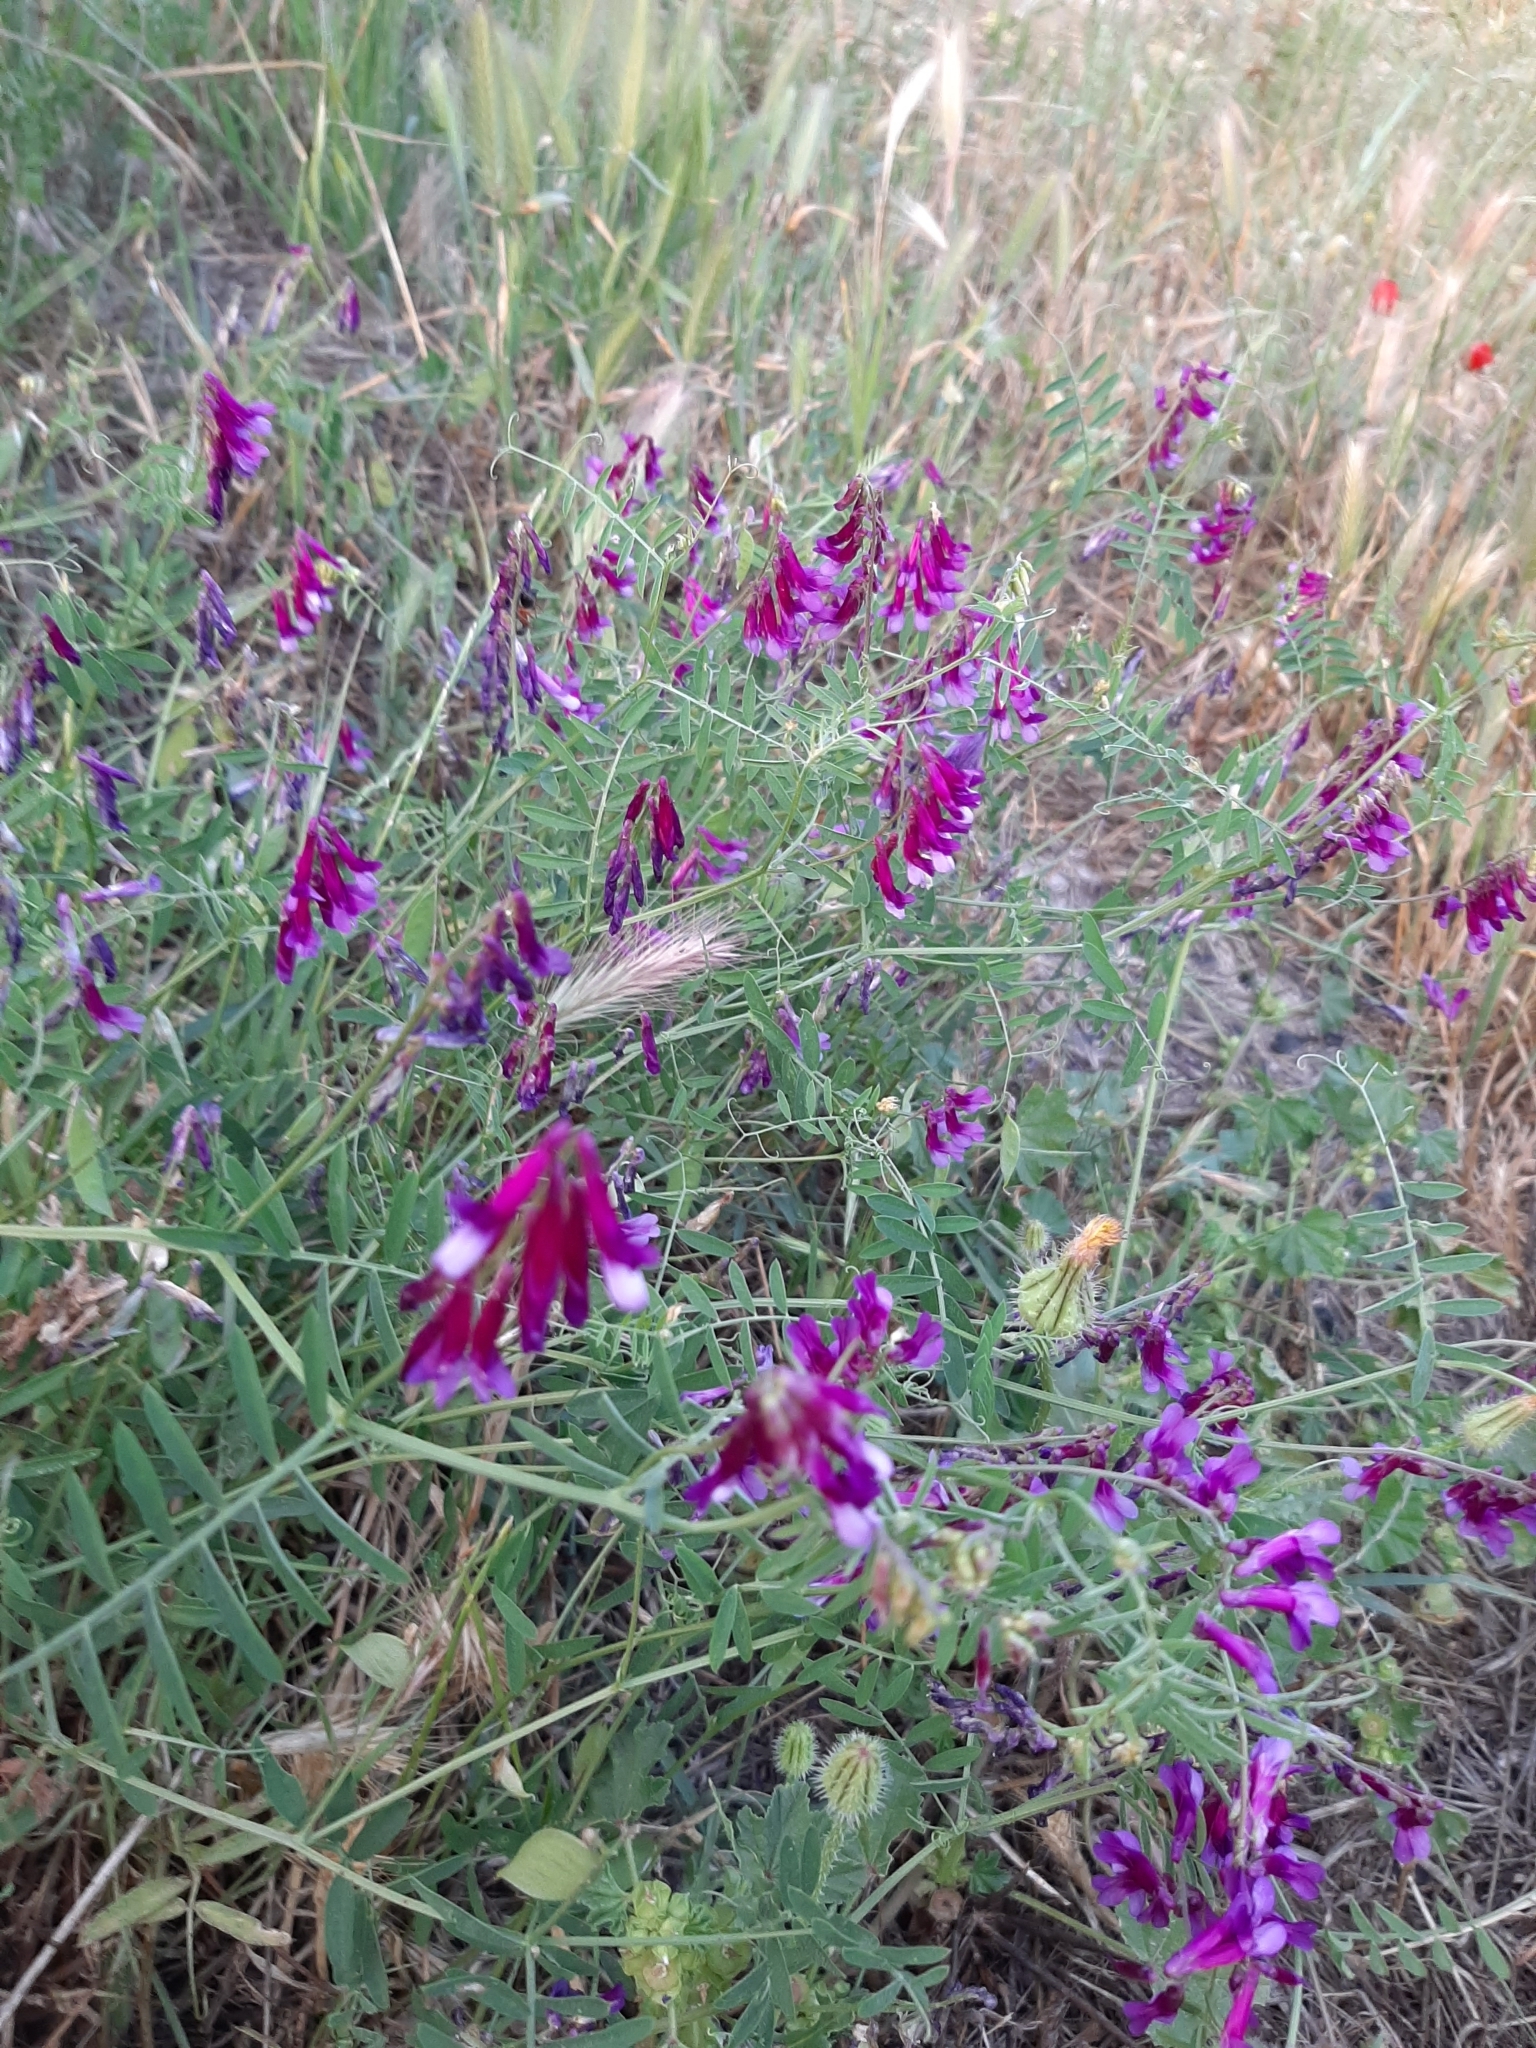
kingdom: Plantae
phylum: Tracheophyta
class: Magnoliopsida
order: Fabales
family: Fabaceae
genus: Vicia
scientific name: Vicia villosa
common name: Fodder vetch
